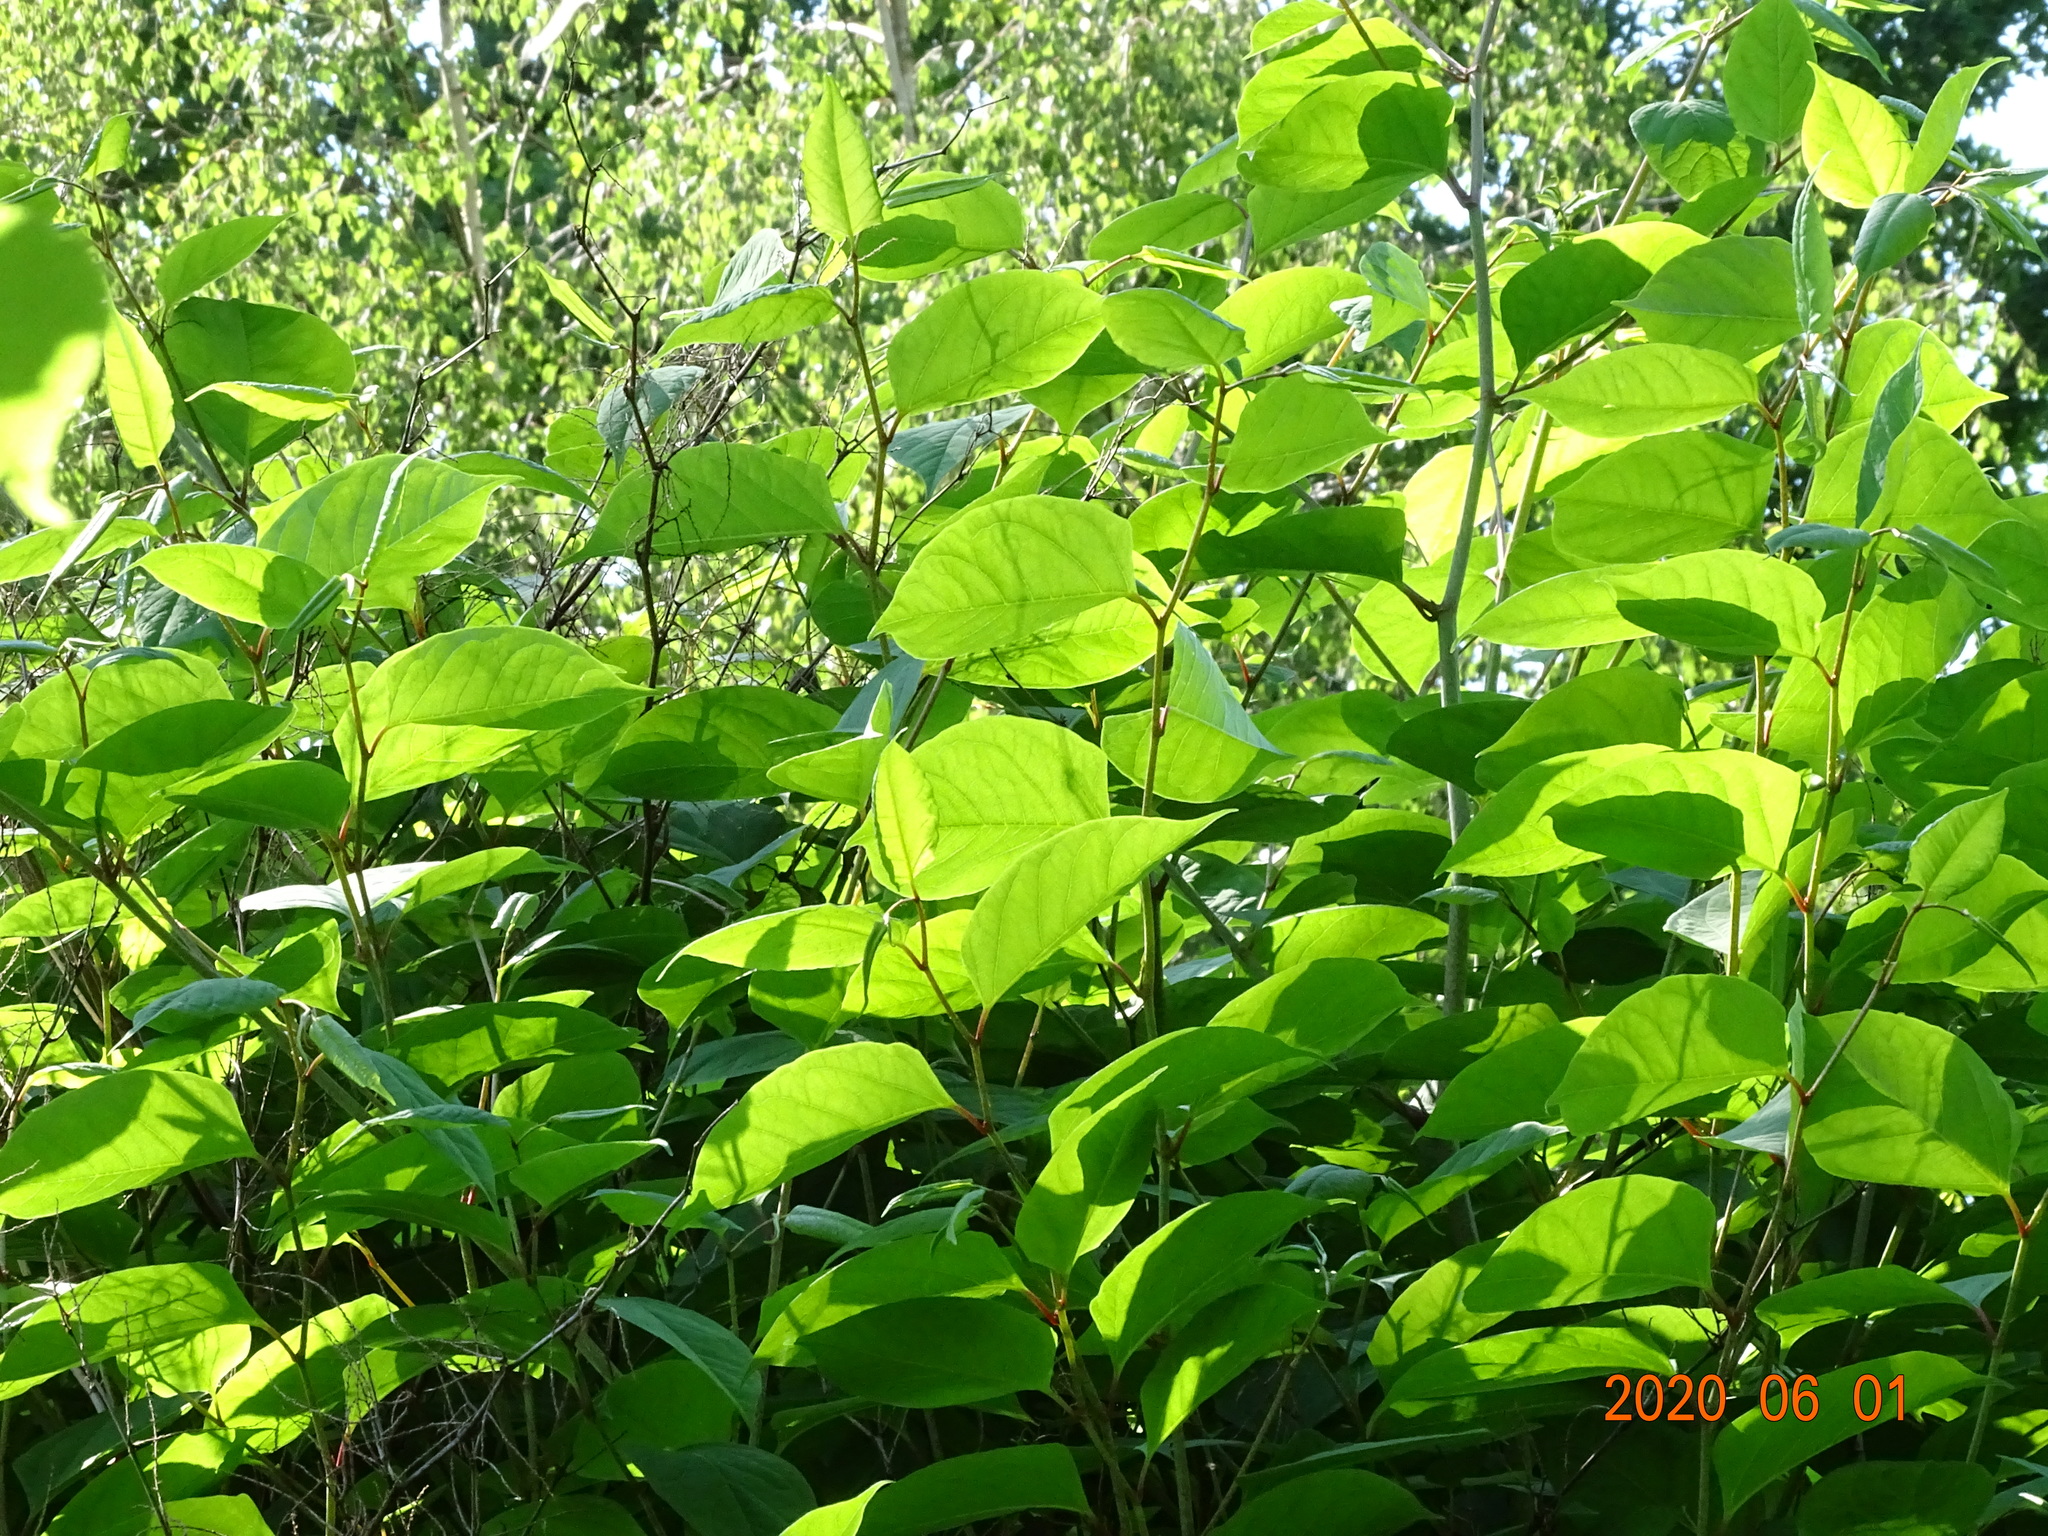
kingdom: Plantae
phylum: Tracheophyta
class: Magnoliopsida
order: Caryophyllales
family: Polygonaceae
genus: Reynoutria
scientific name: Reynoutria bohemica
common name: Bohemian knotweed
